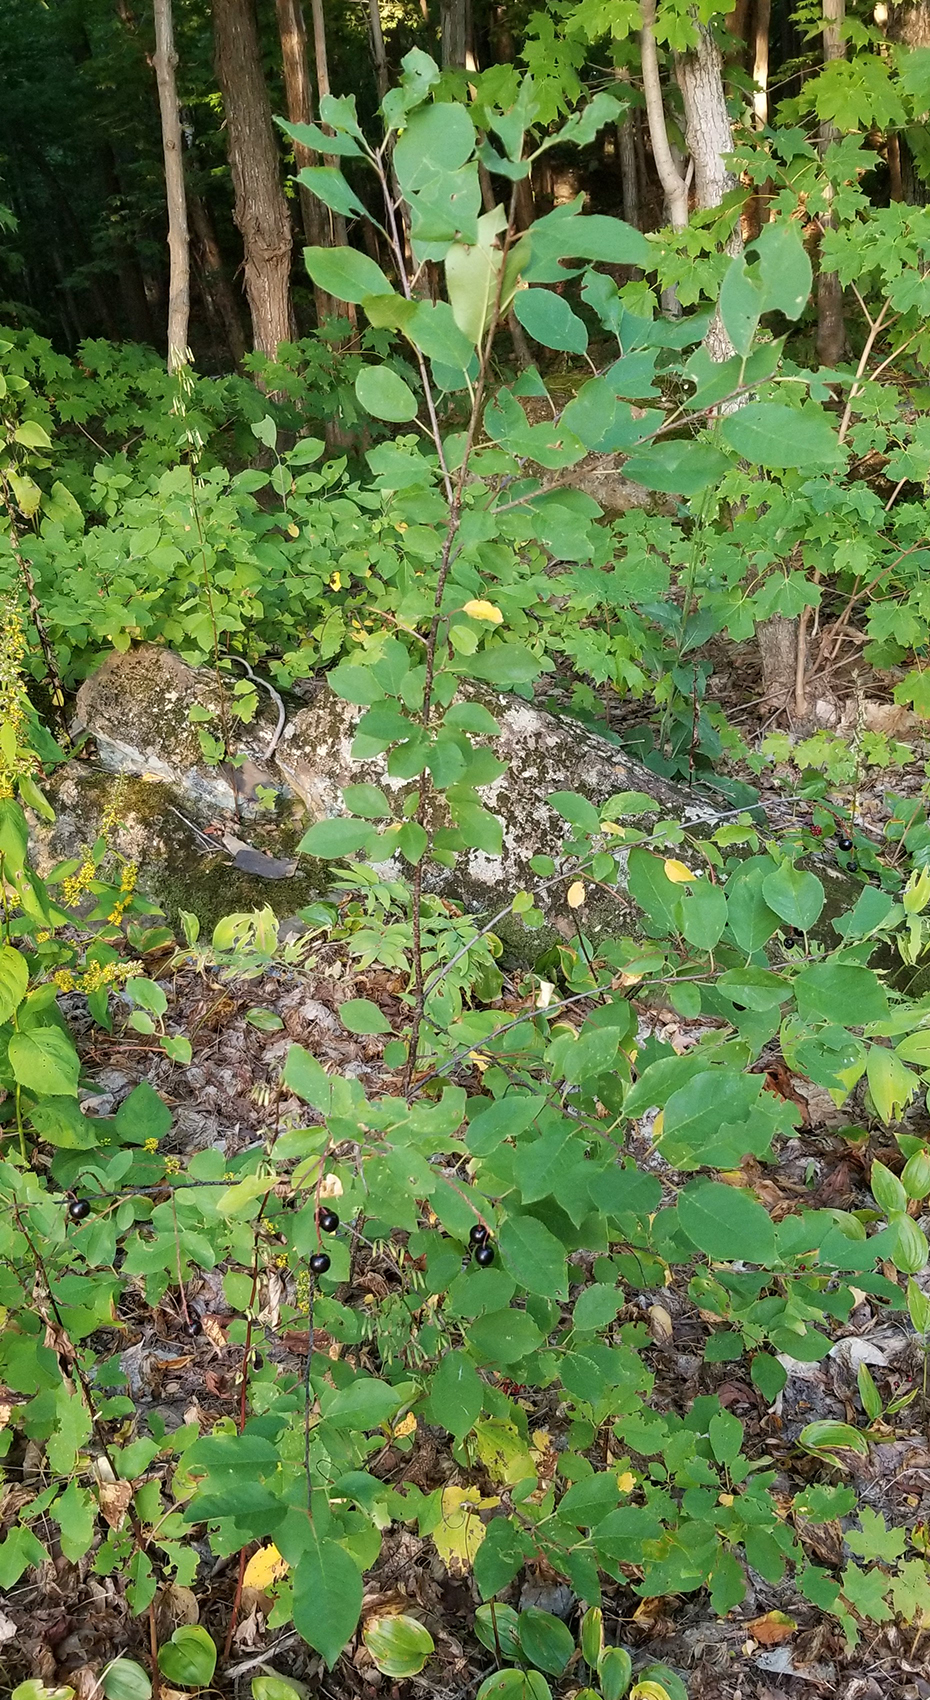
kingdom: Plantae
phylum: Tracheophyta
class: Magnoliopsida
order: Rosales
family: Rosaceae
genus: Prunus
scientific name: Prunus virginiana
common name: Chokecherry
